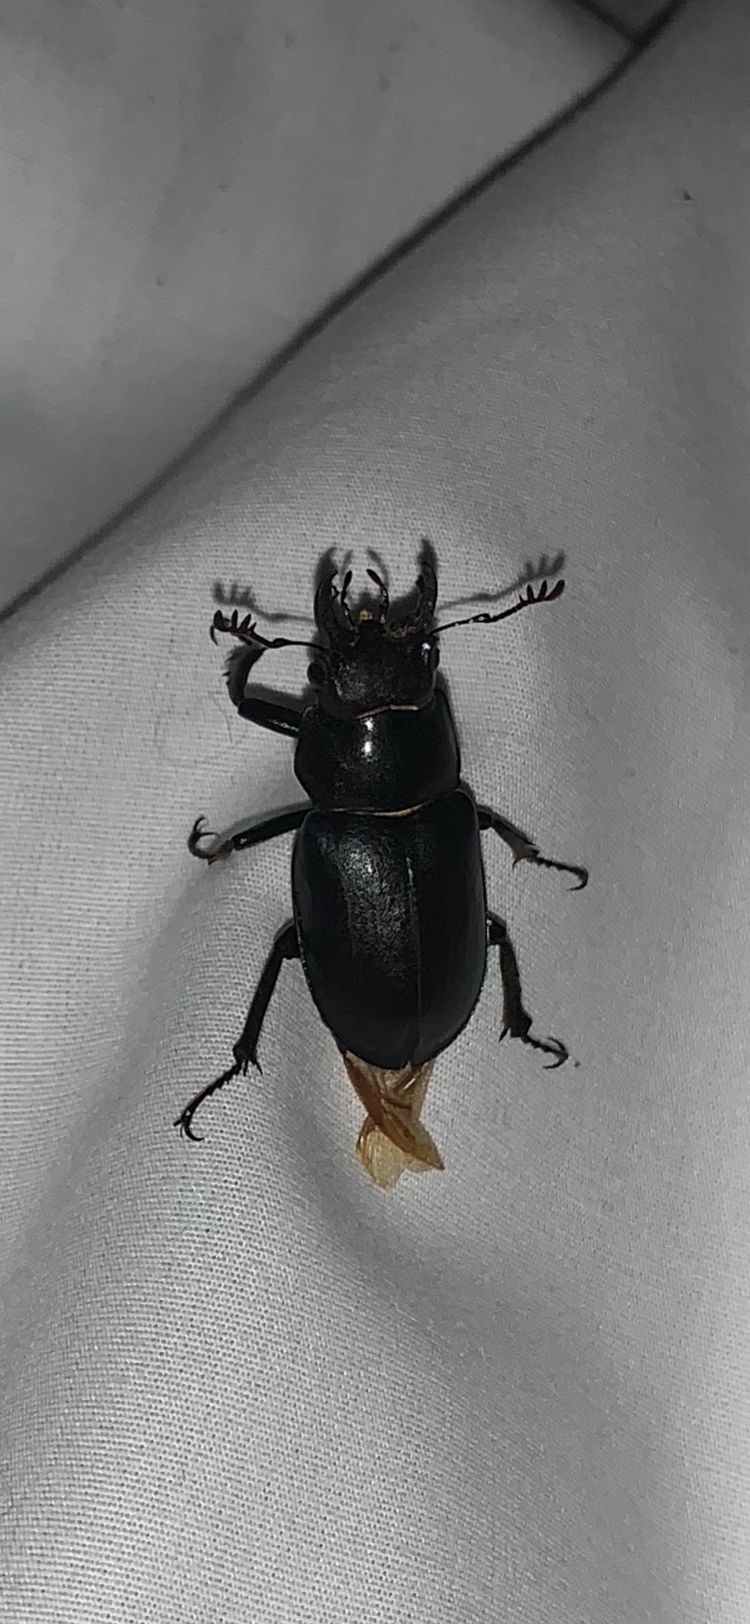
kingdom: Animalia
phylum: Arthropoda
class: Insecta
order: Coleoptera
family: Lucanidae
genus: Lucanus
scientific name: Lucanus placidus
